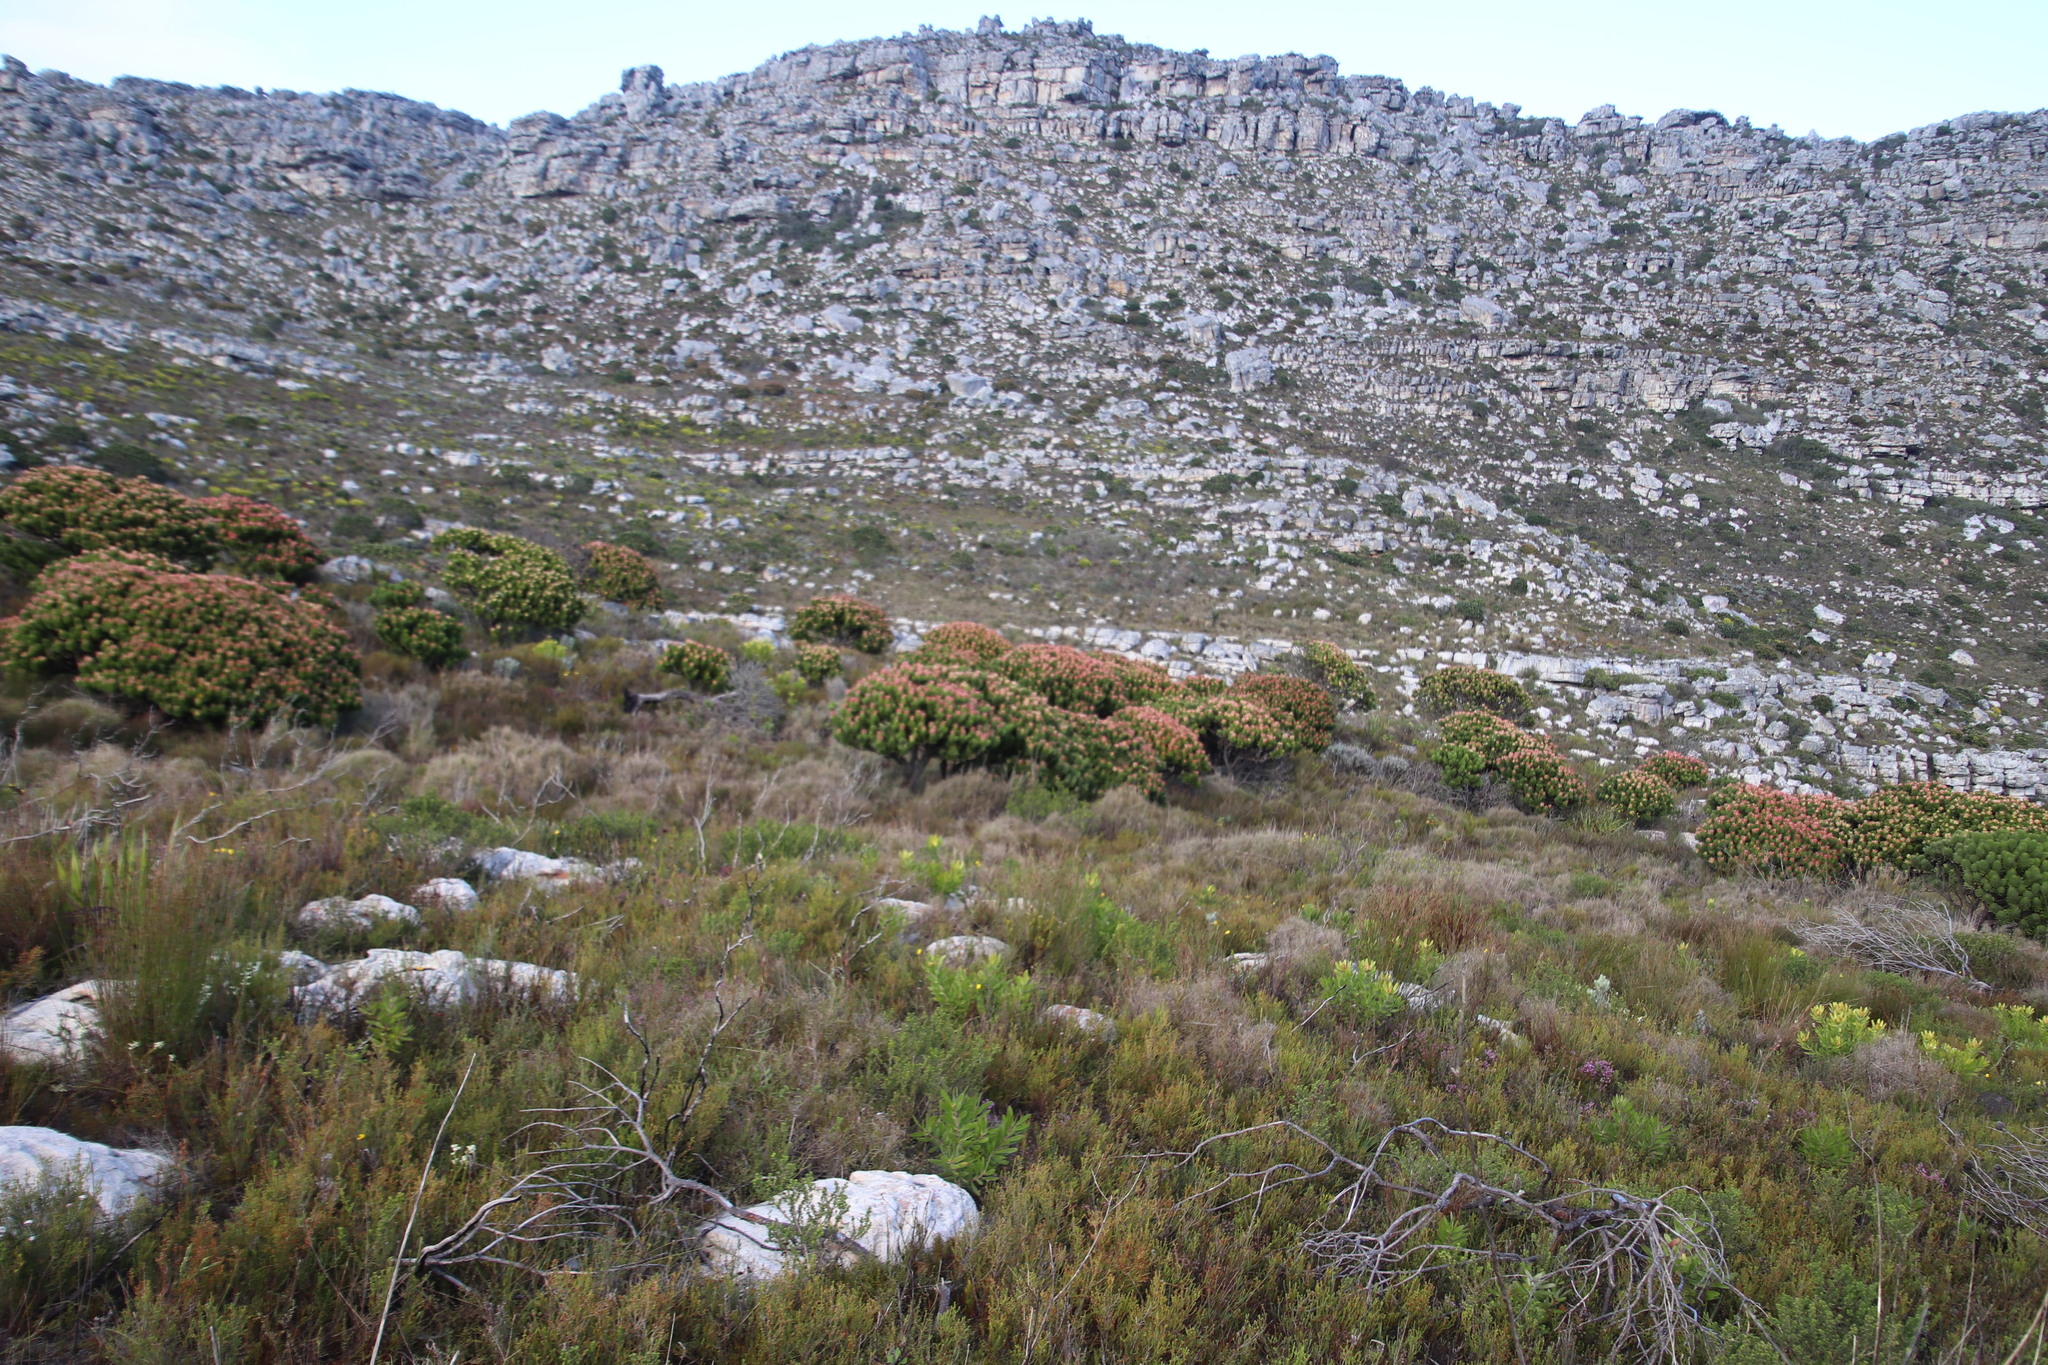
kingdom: Plantae
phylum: Tracheophyta
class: Magnoliopsida
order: Proteales
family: Proteaceae
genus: Mimetes
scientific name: Mimetes fimbriifolius
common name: Fringed bottlebrush
